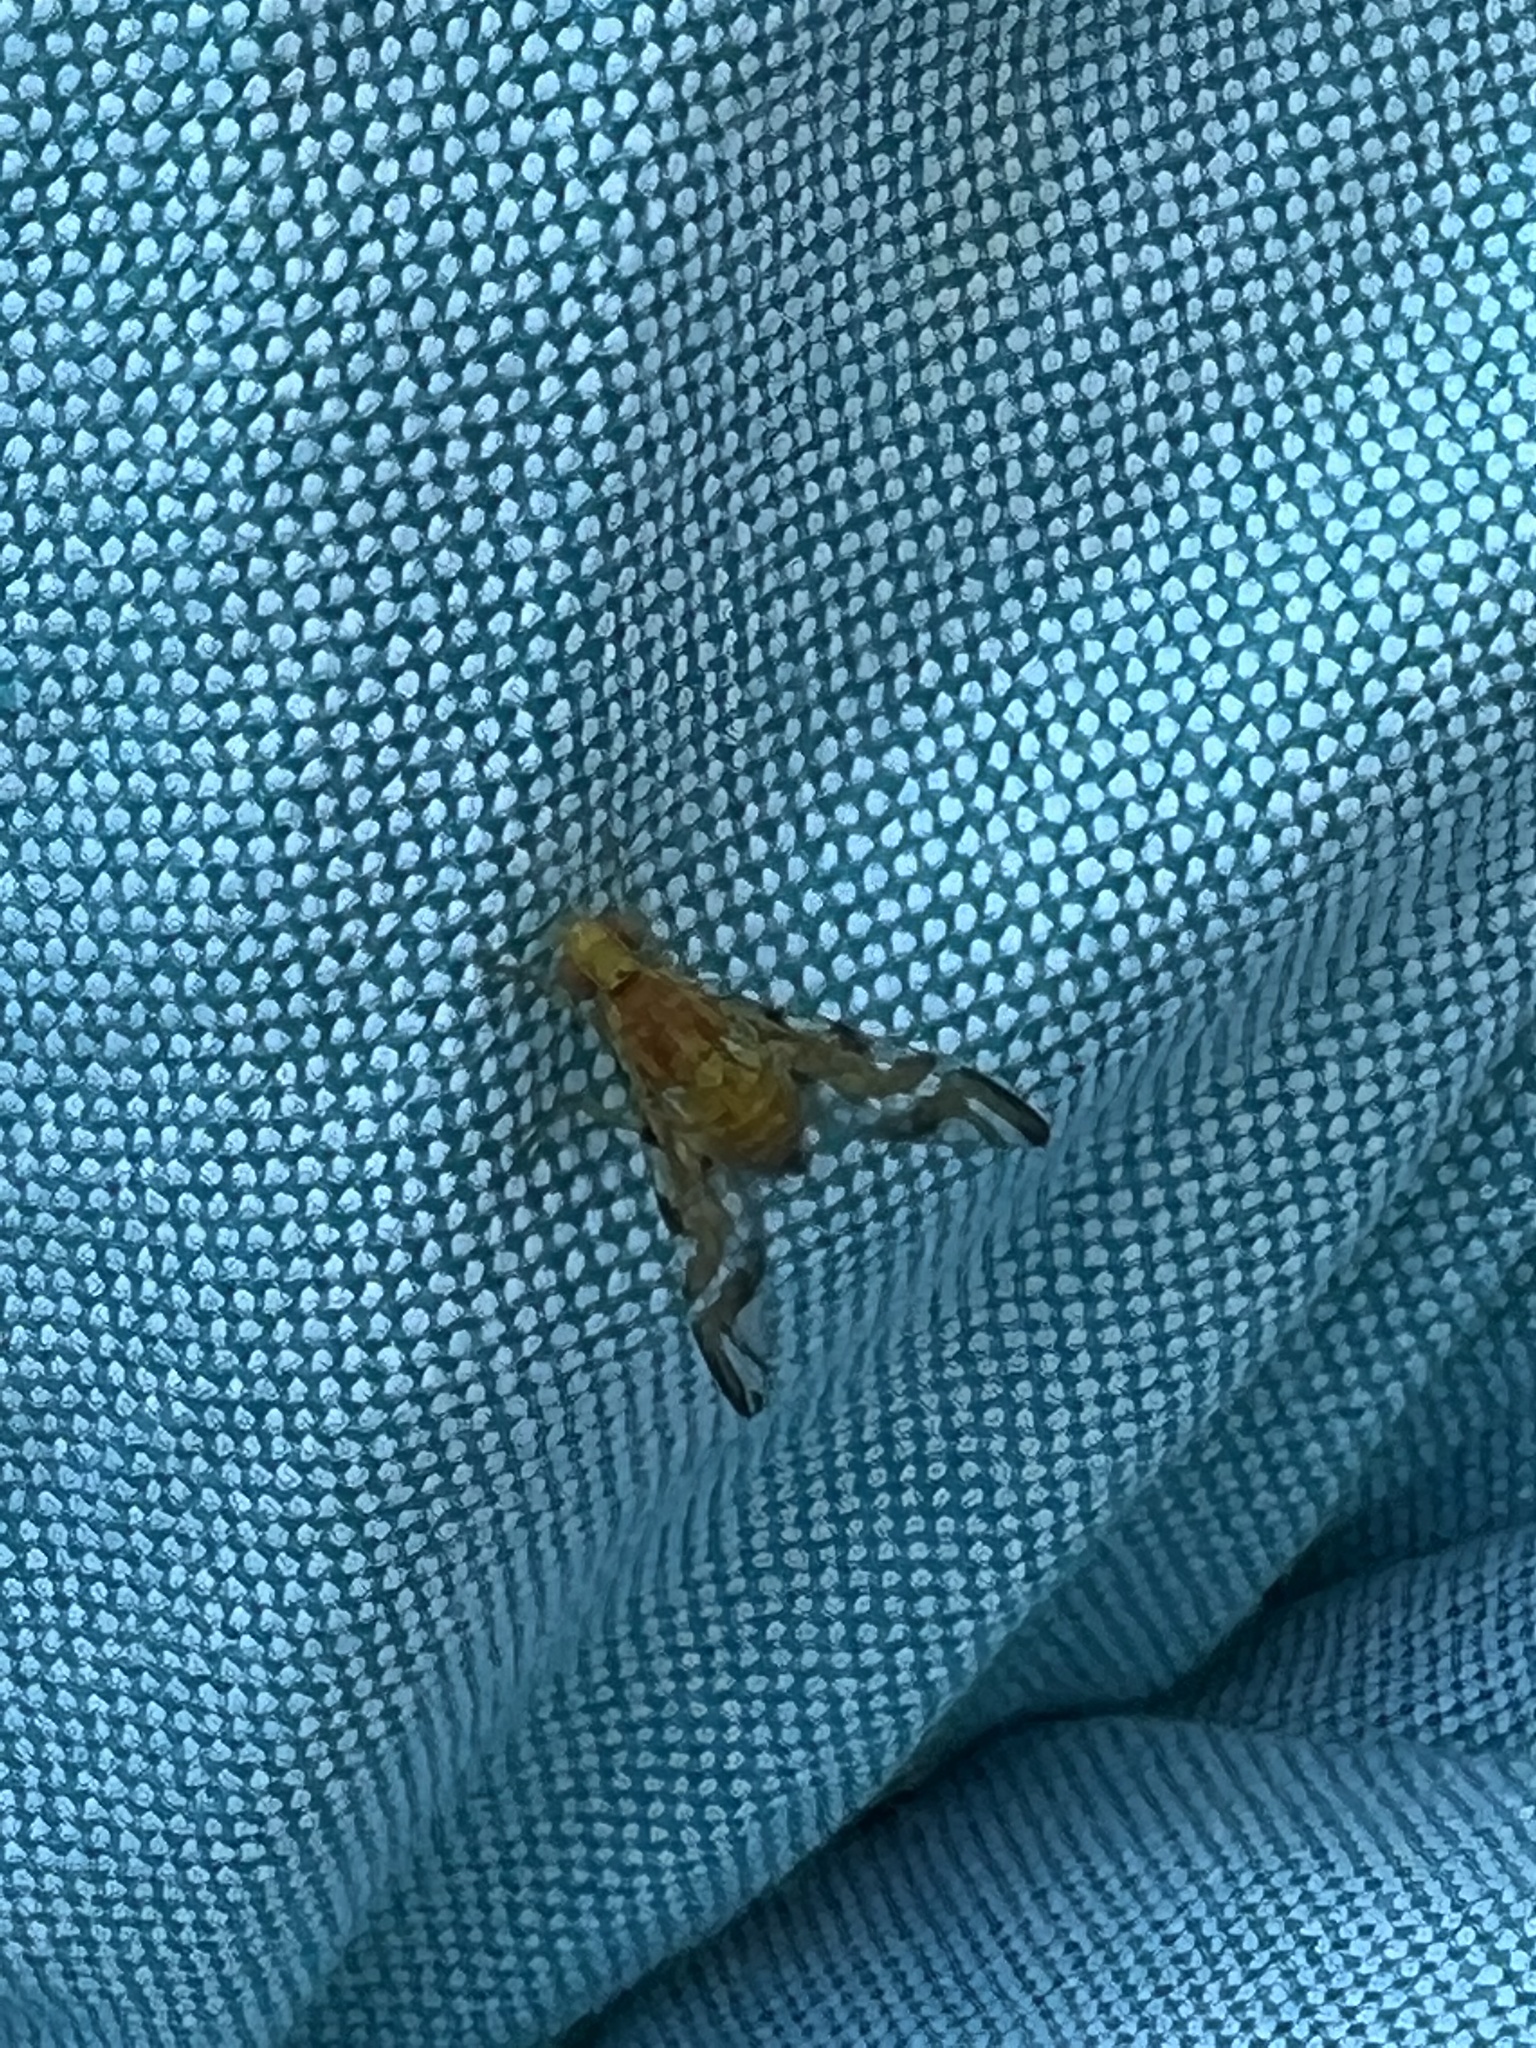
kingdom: Animalia
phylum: Arthropoda
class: Insecta
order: Diptera
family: Tephritidae
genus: Strauzia
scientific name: Strauzia longipennis
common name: Sunflower maggot
